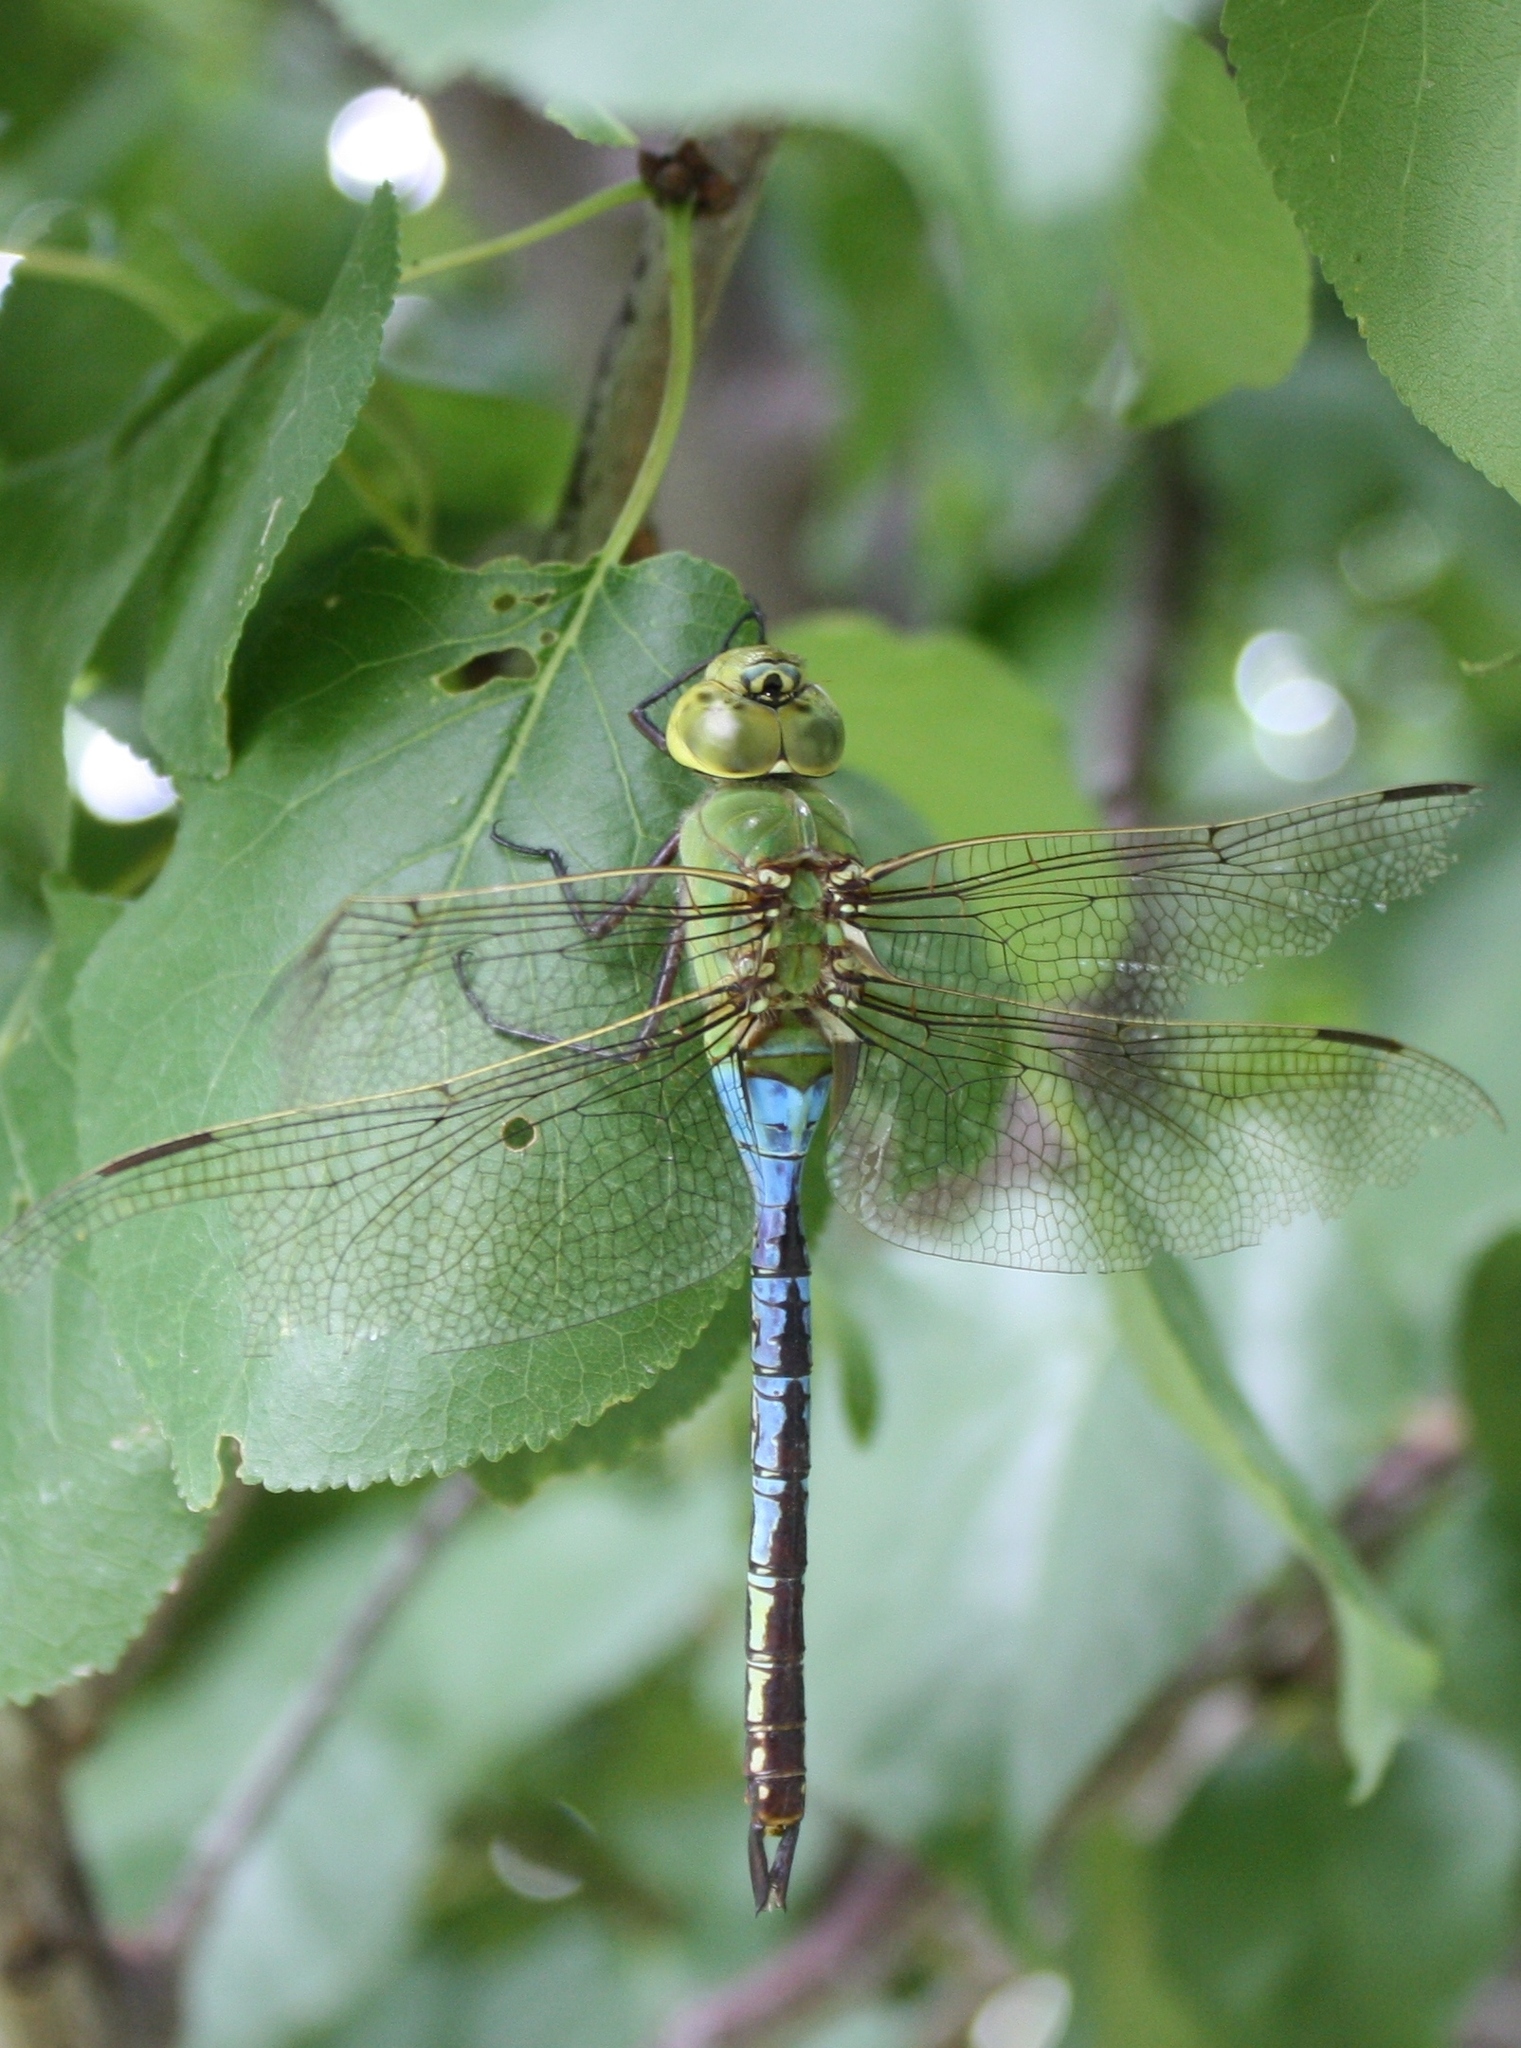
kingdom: Animalia
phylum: Arthropoda
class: Insecta
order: Odonata
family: Aeshnidae
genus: Anax
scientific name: Anax junius
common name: Common green darner
